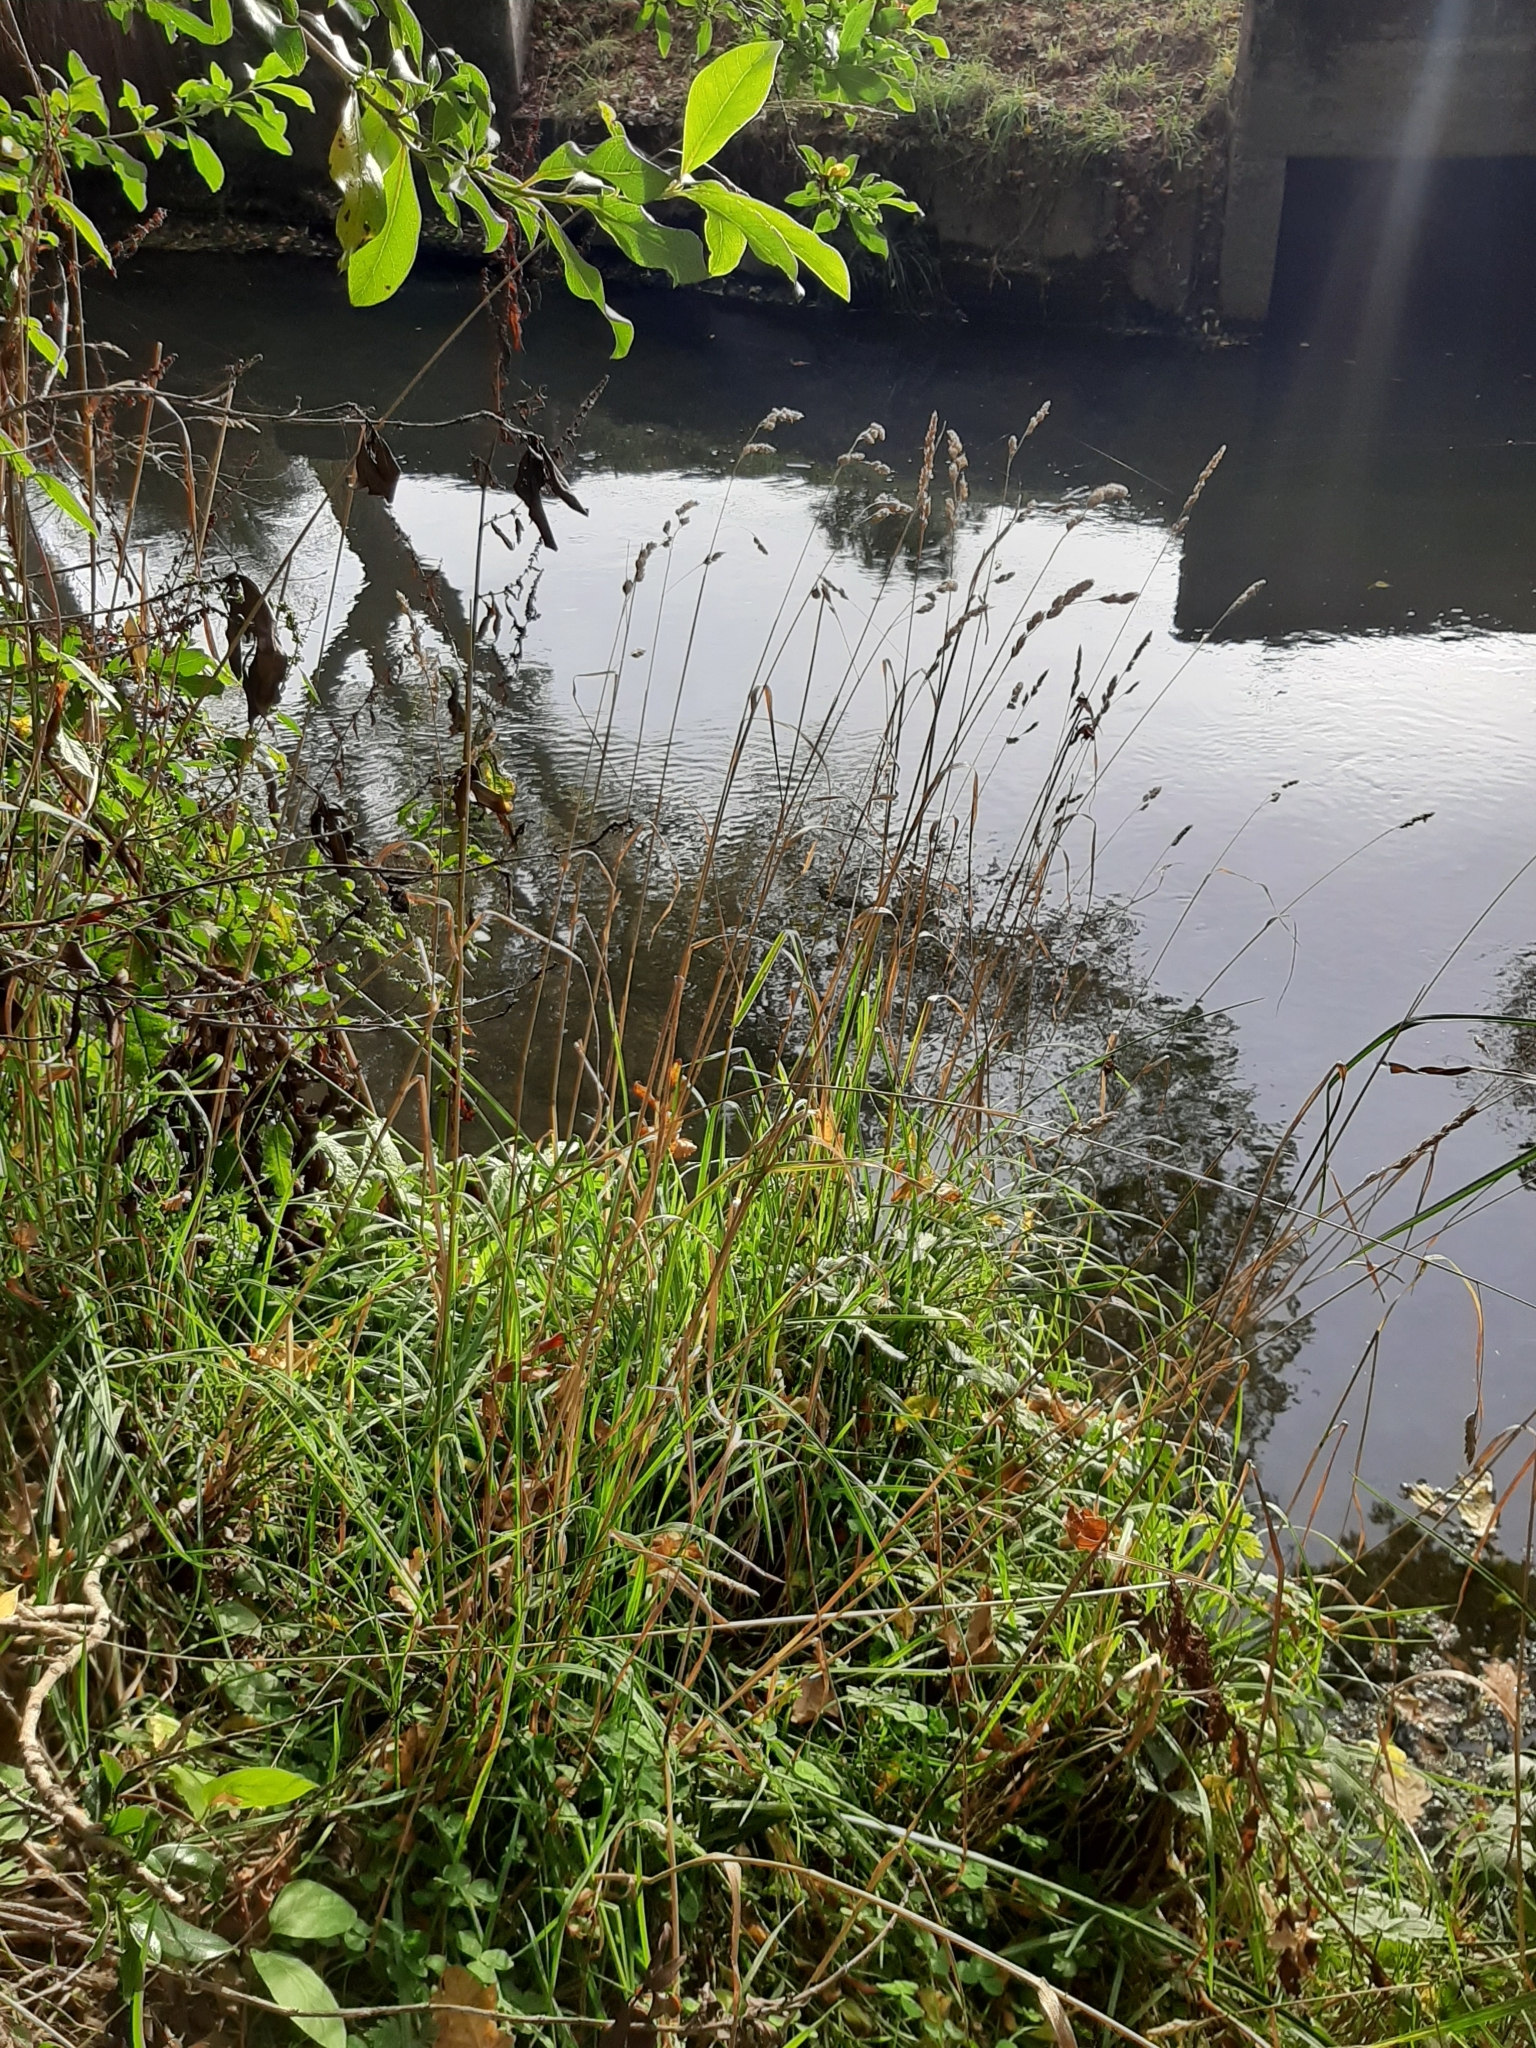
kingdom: Plantae
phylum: Tracheophyta
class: Liliopsida
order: Poales
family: Poaceae
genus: Dactylis
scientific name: Dactylis glomerata
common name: Orchardgrass
